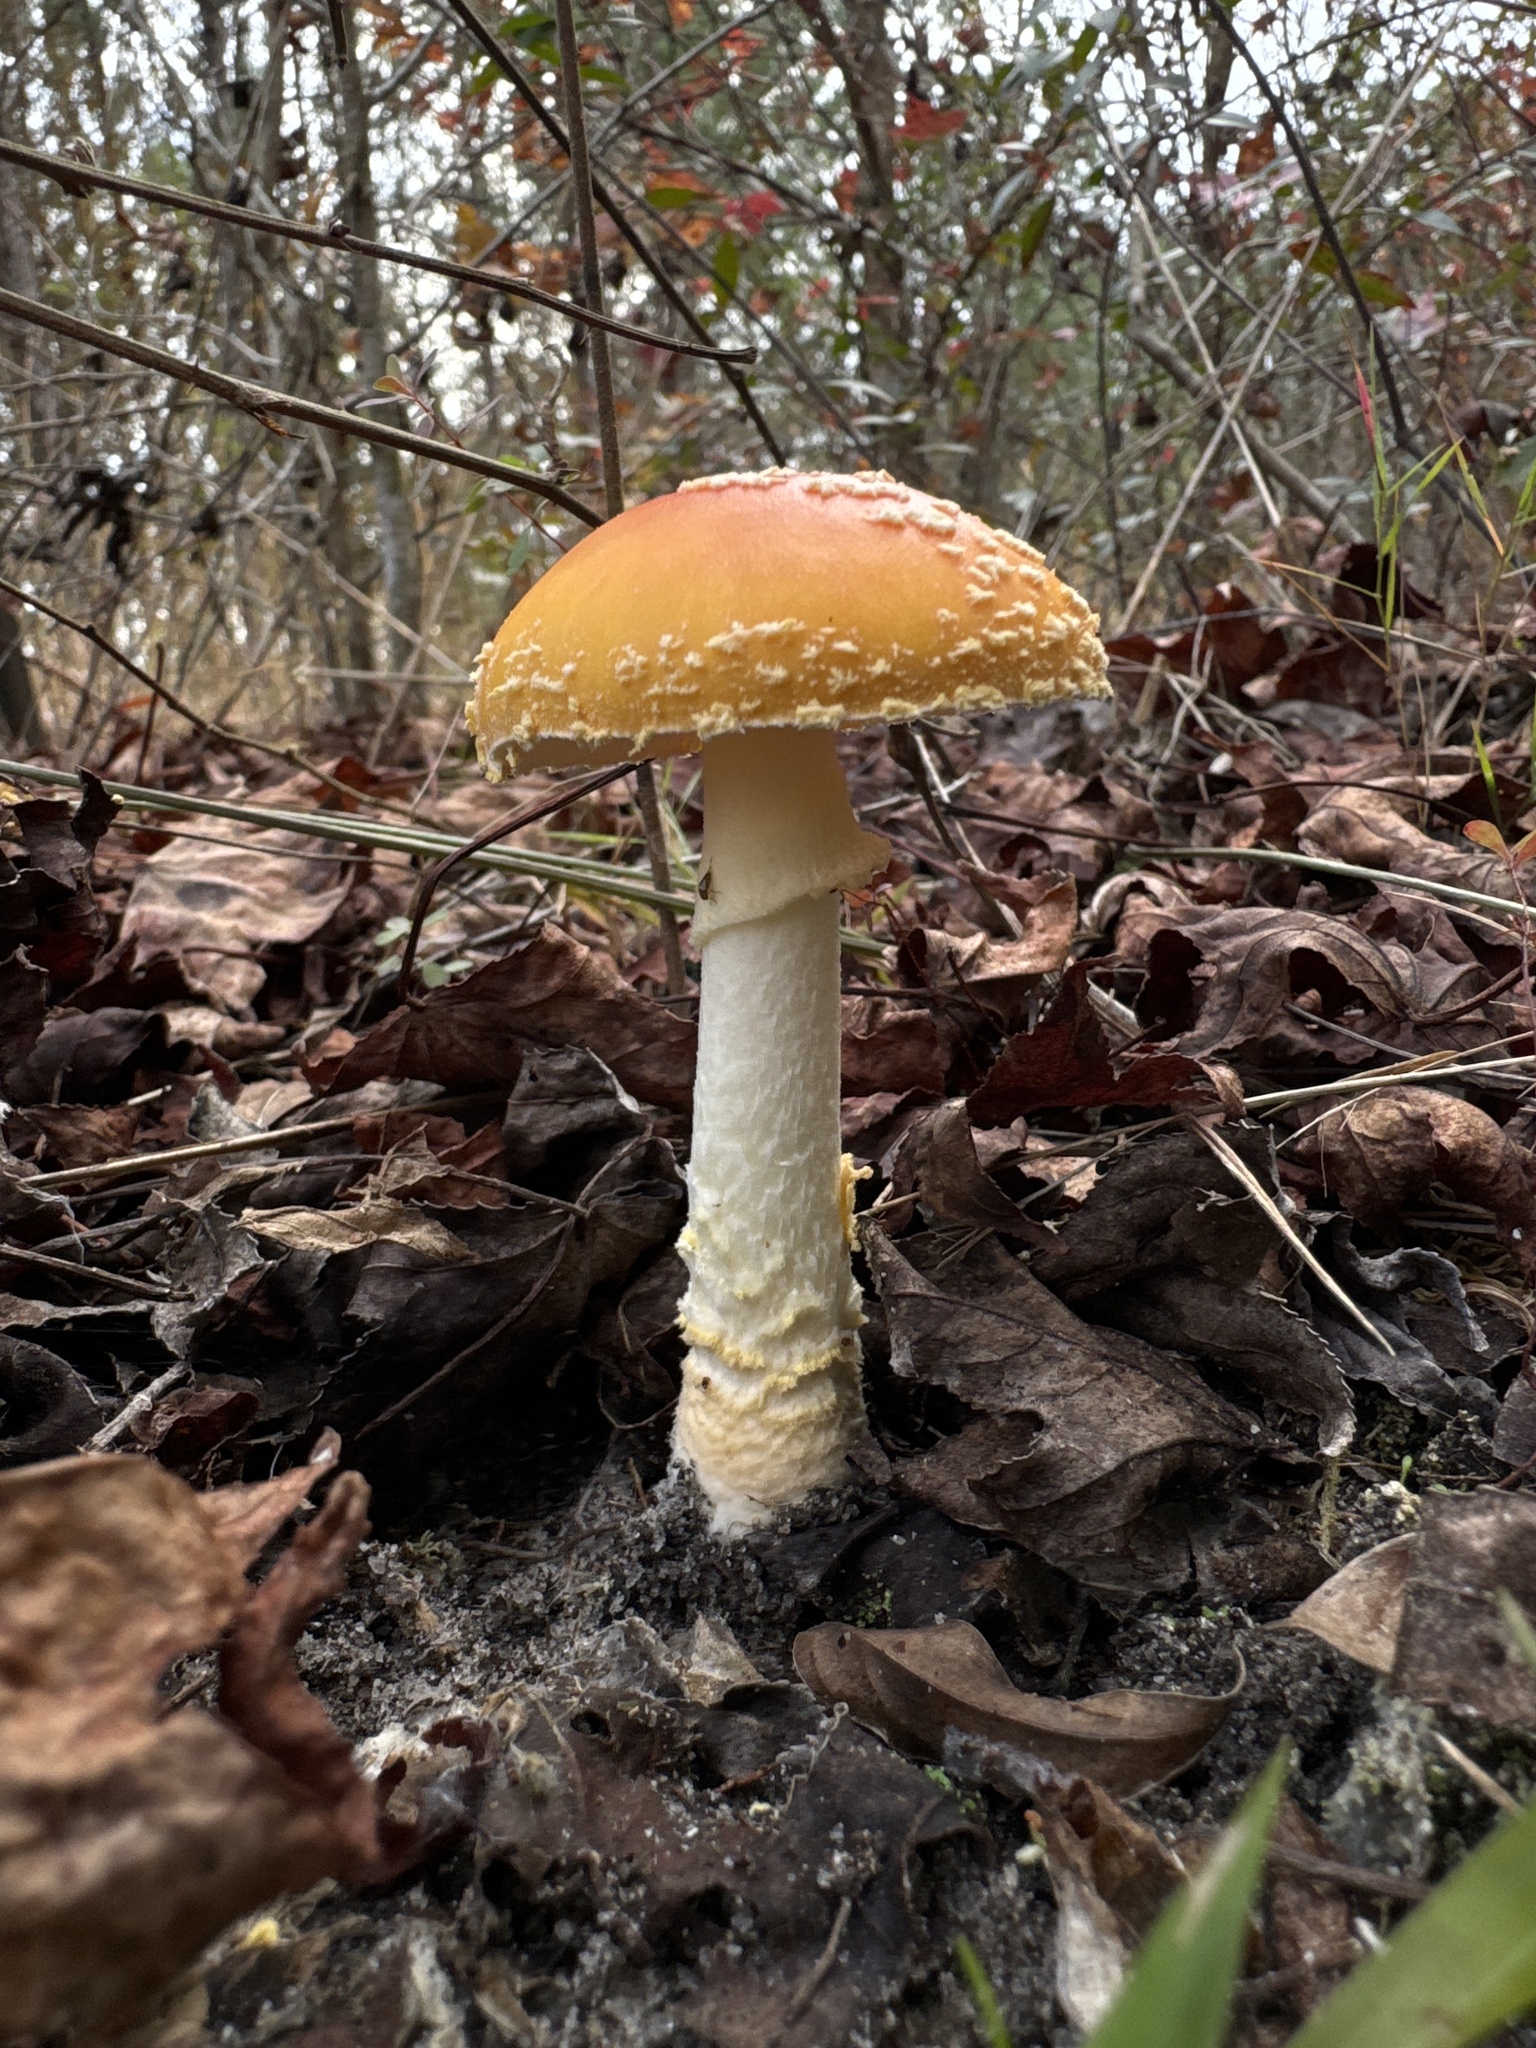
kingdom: Fungi
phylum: Basidiomycota
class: Agaricomycetes
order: Agaricales
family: Amanitaceae
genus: Amanita
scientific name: Amanita persicina
